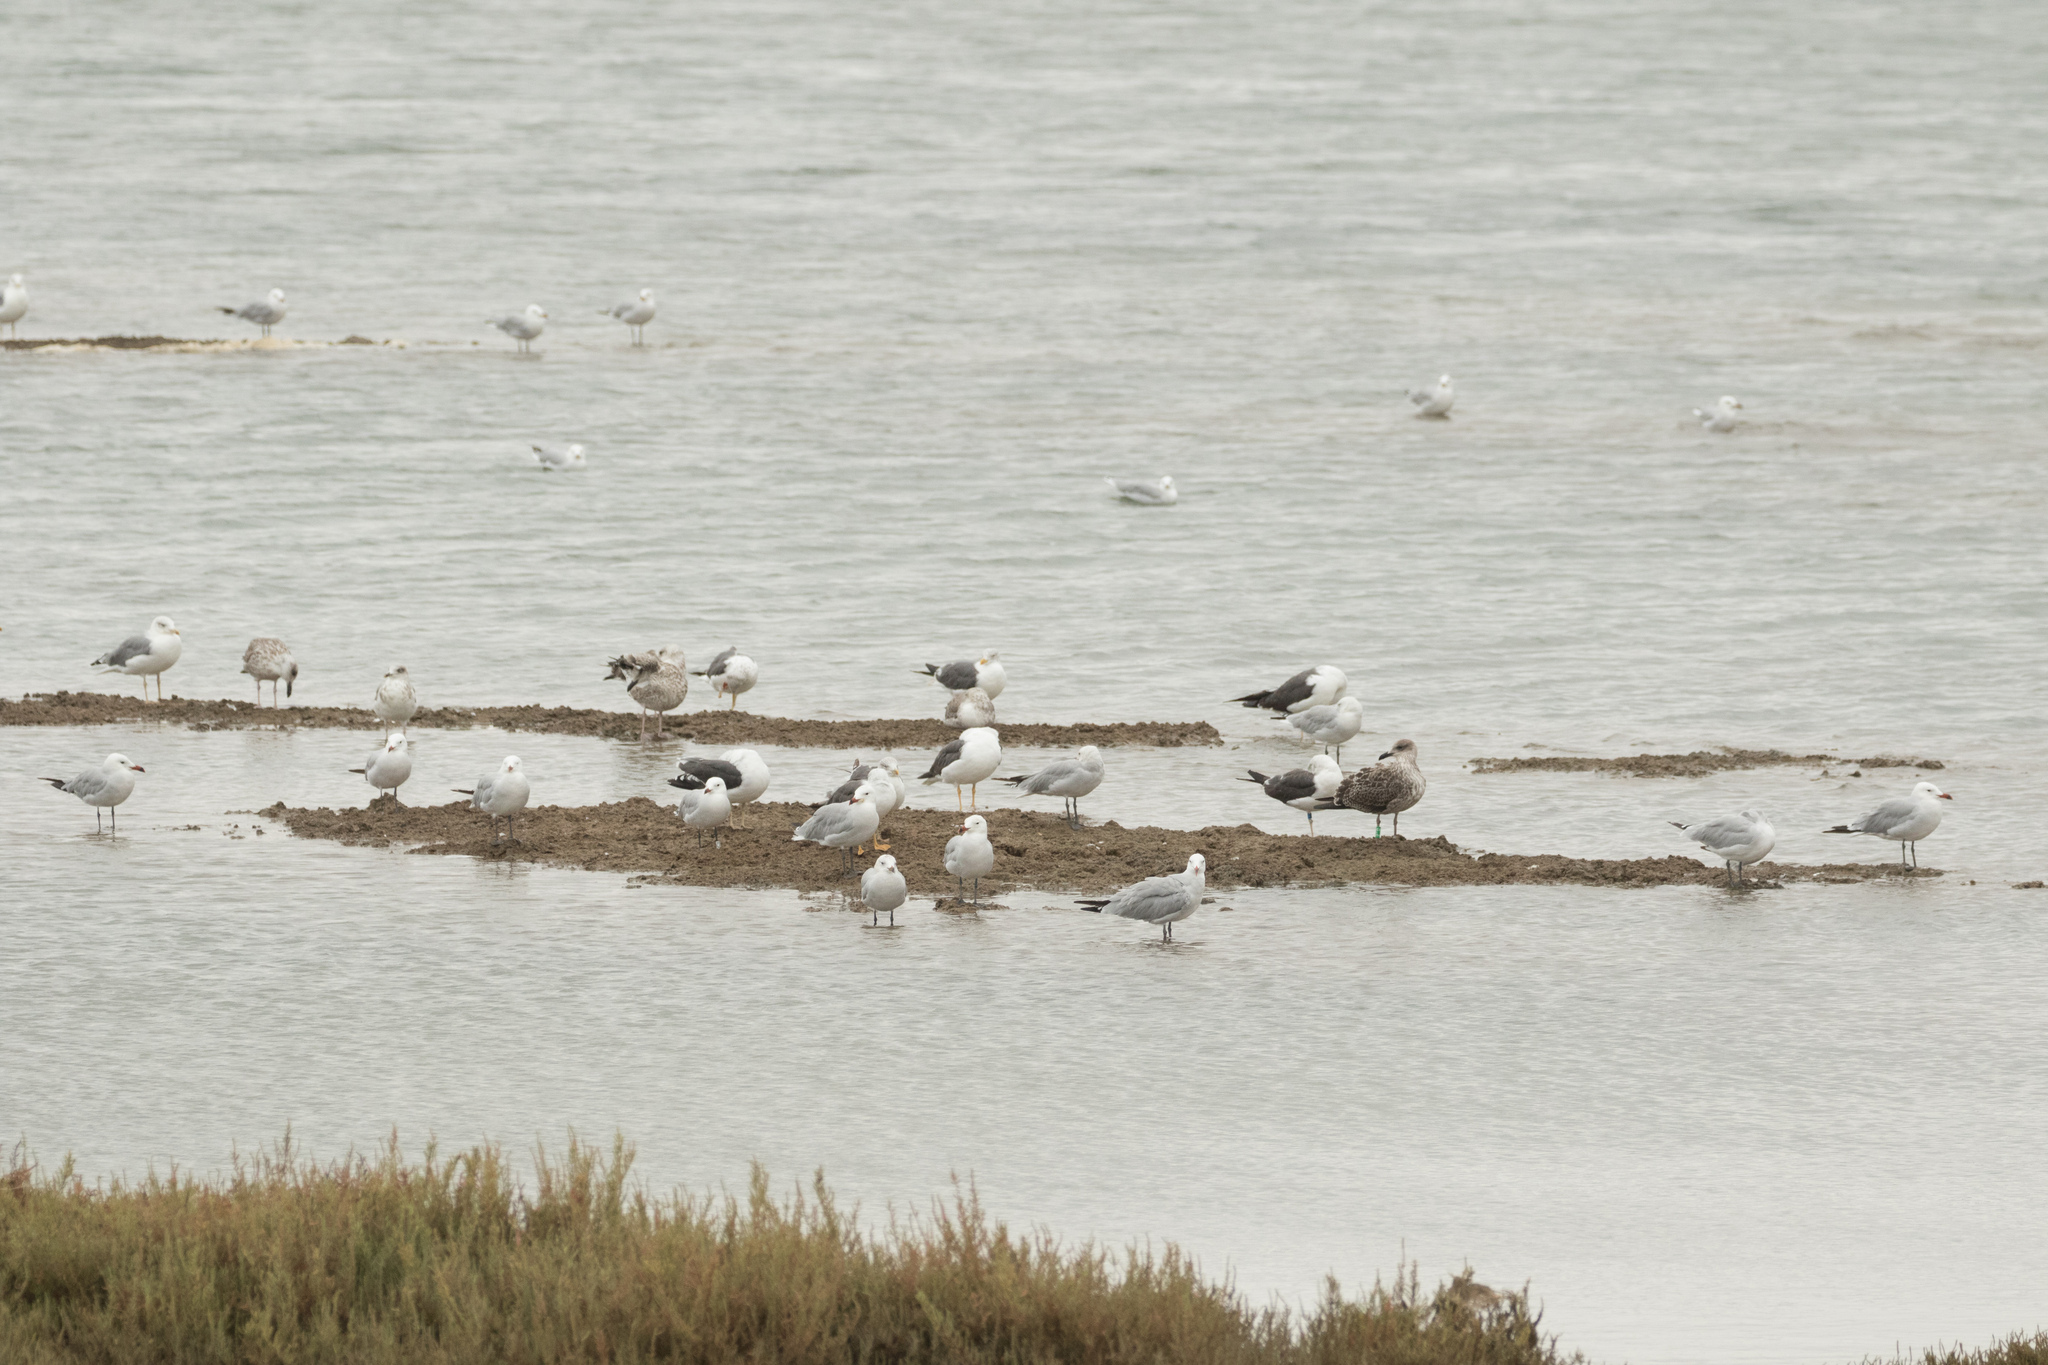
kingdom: Animalia
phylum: Chordata
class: Aves
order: Charadriiformes
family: Laridae
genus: Ichthyaetus
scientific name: Ichthyaetus audouinii
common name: Audouin's gull
